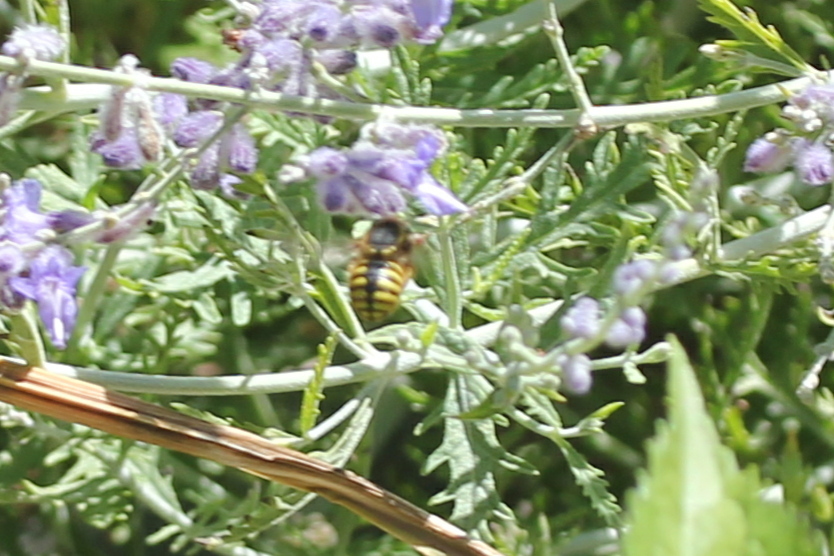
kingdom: Animalia
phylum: Arthropoda
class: Insecta
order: Hymenoptera
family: Megachilidae
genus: Anthidium
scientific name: Anthidium manicatum
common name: Wool carder bee
